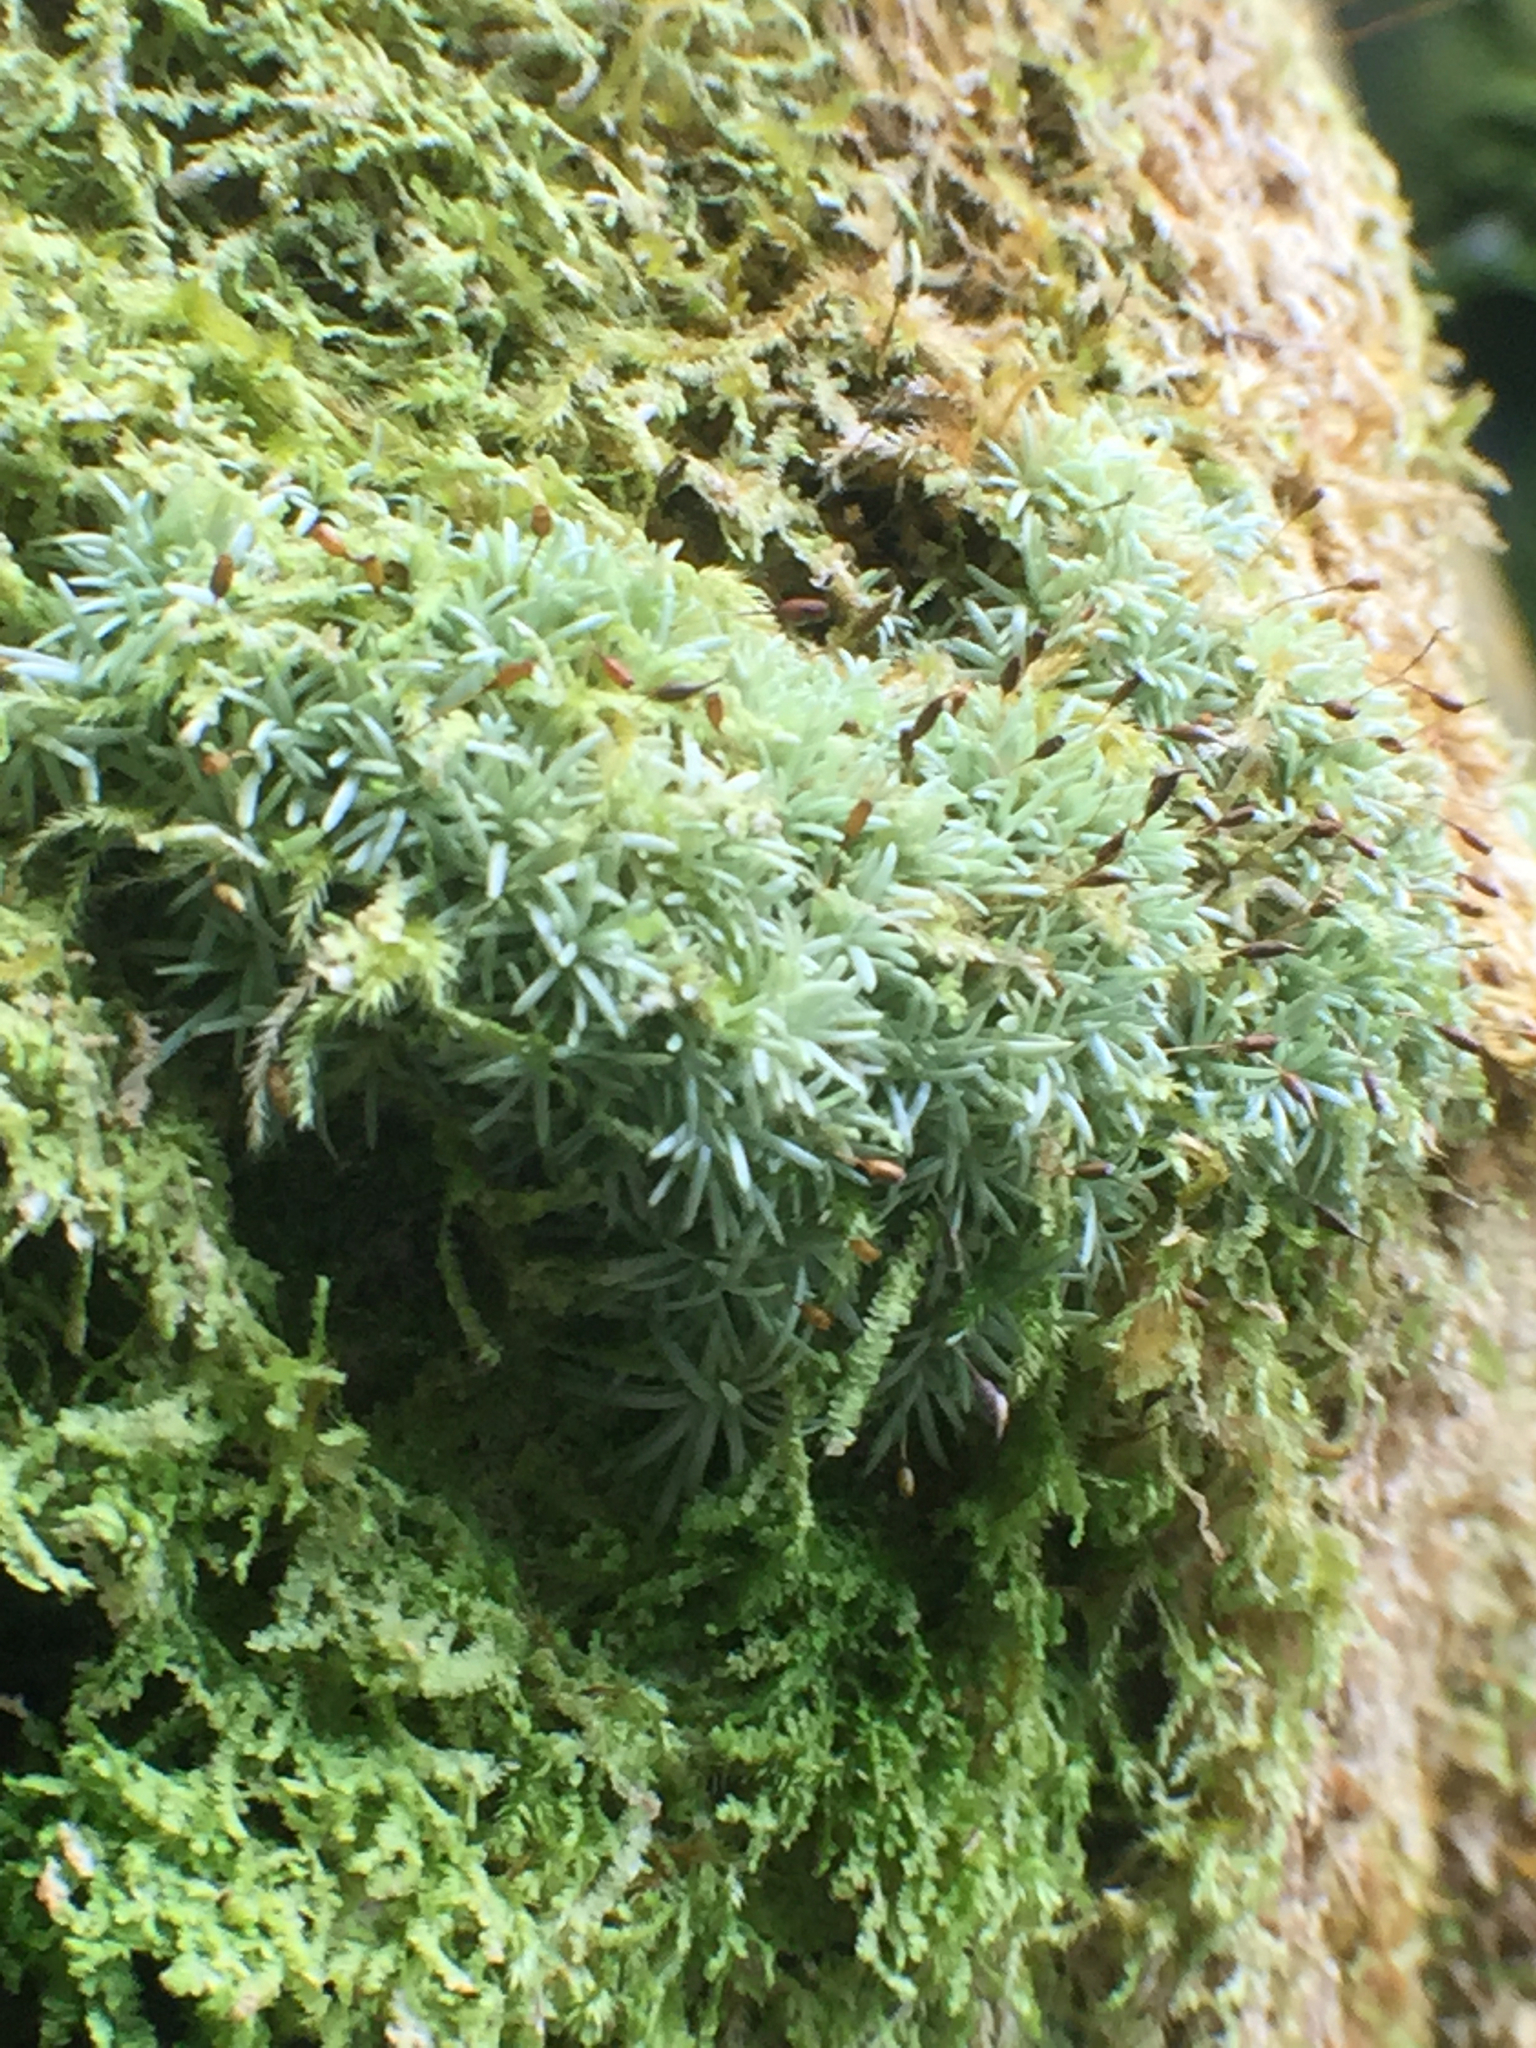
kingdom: Plantae
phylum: Bryophyta
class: Bryopsida
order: Dicranales
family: Octoblepharaceae
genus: Octoblepharum
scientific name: Octoblepharum albidum
